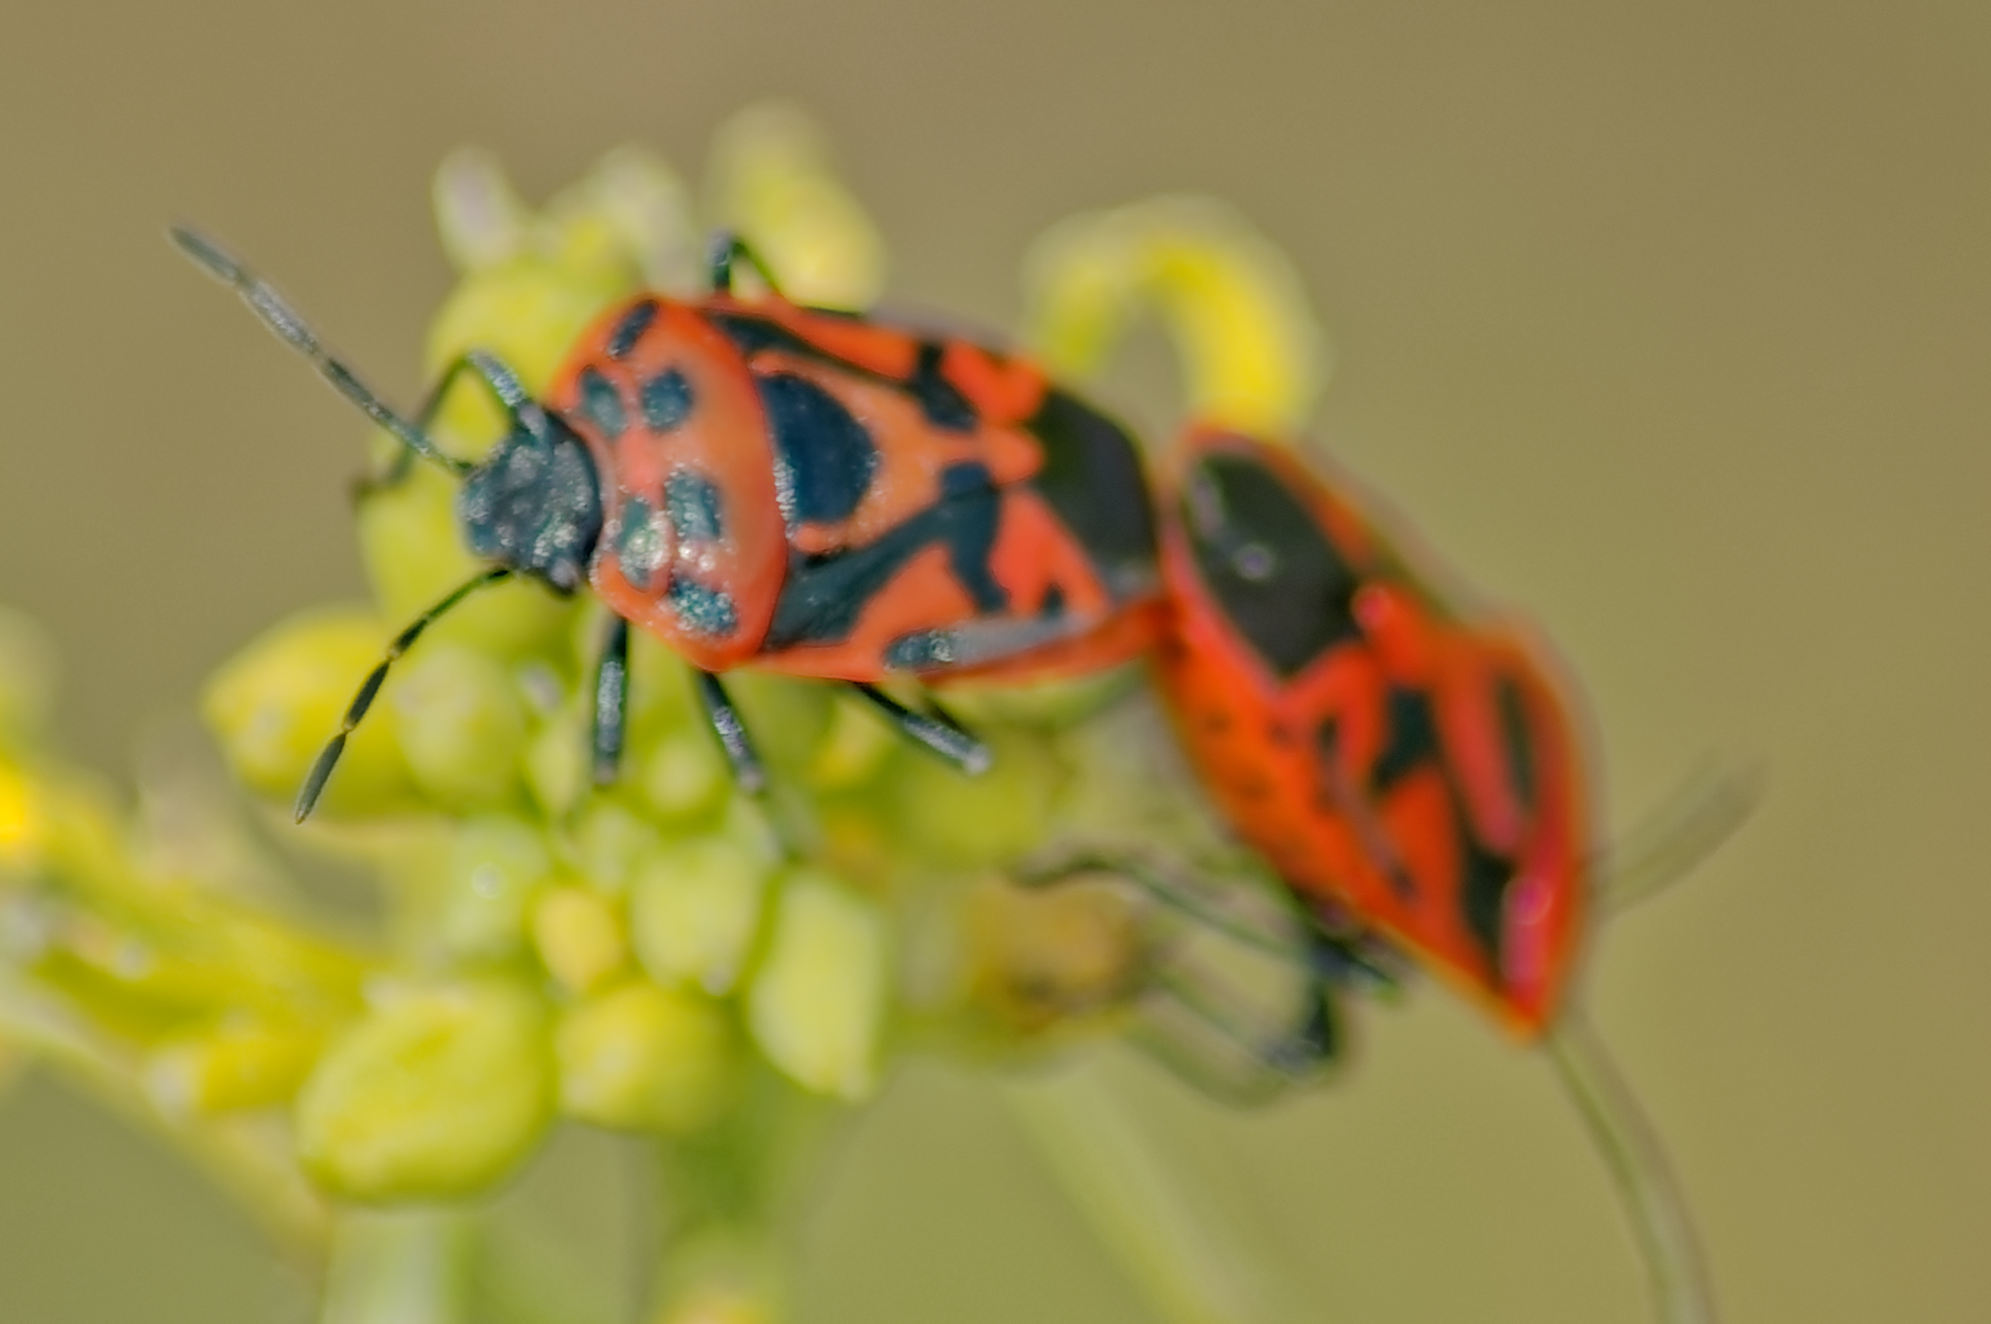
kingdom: Animalia
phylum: Arthropoda
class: Insecta
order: Hemiptera
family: Pentatomidae
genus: Eurydema
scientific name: Eurydema ornata
